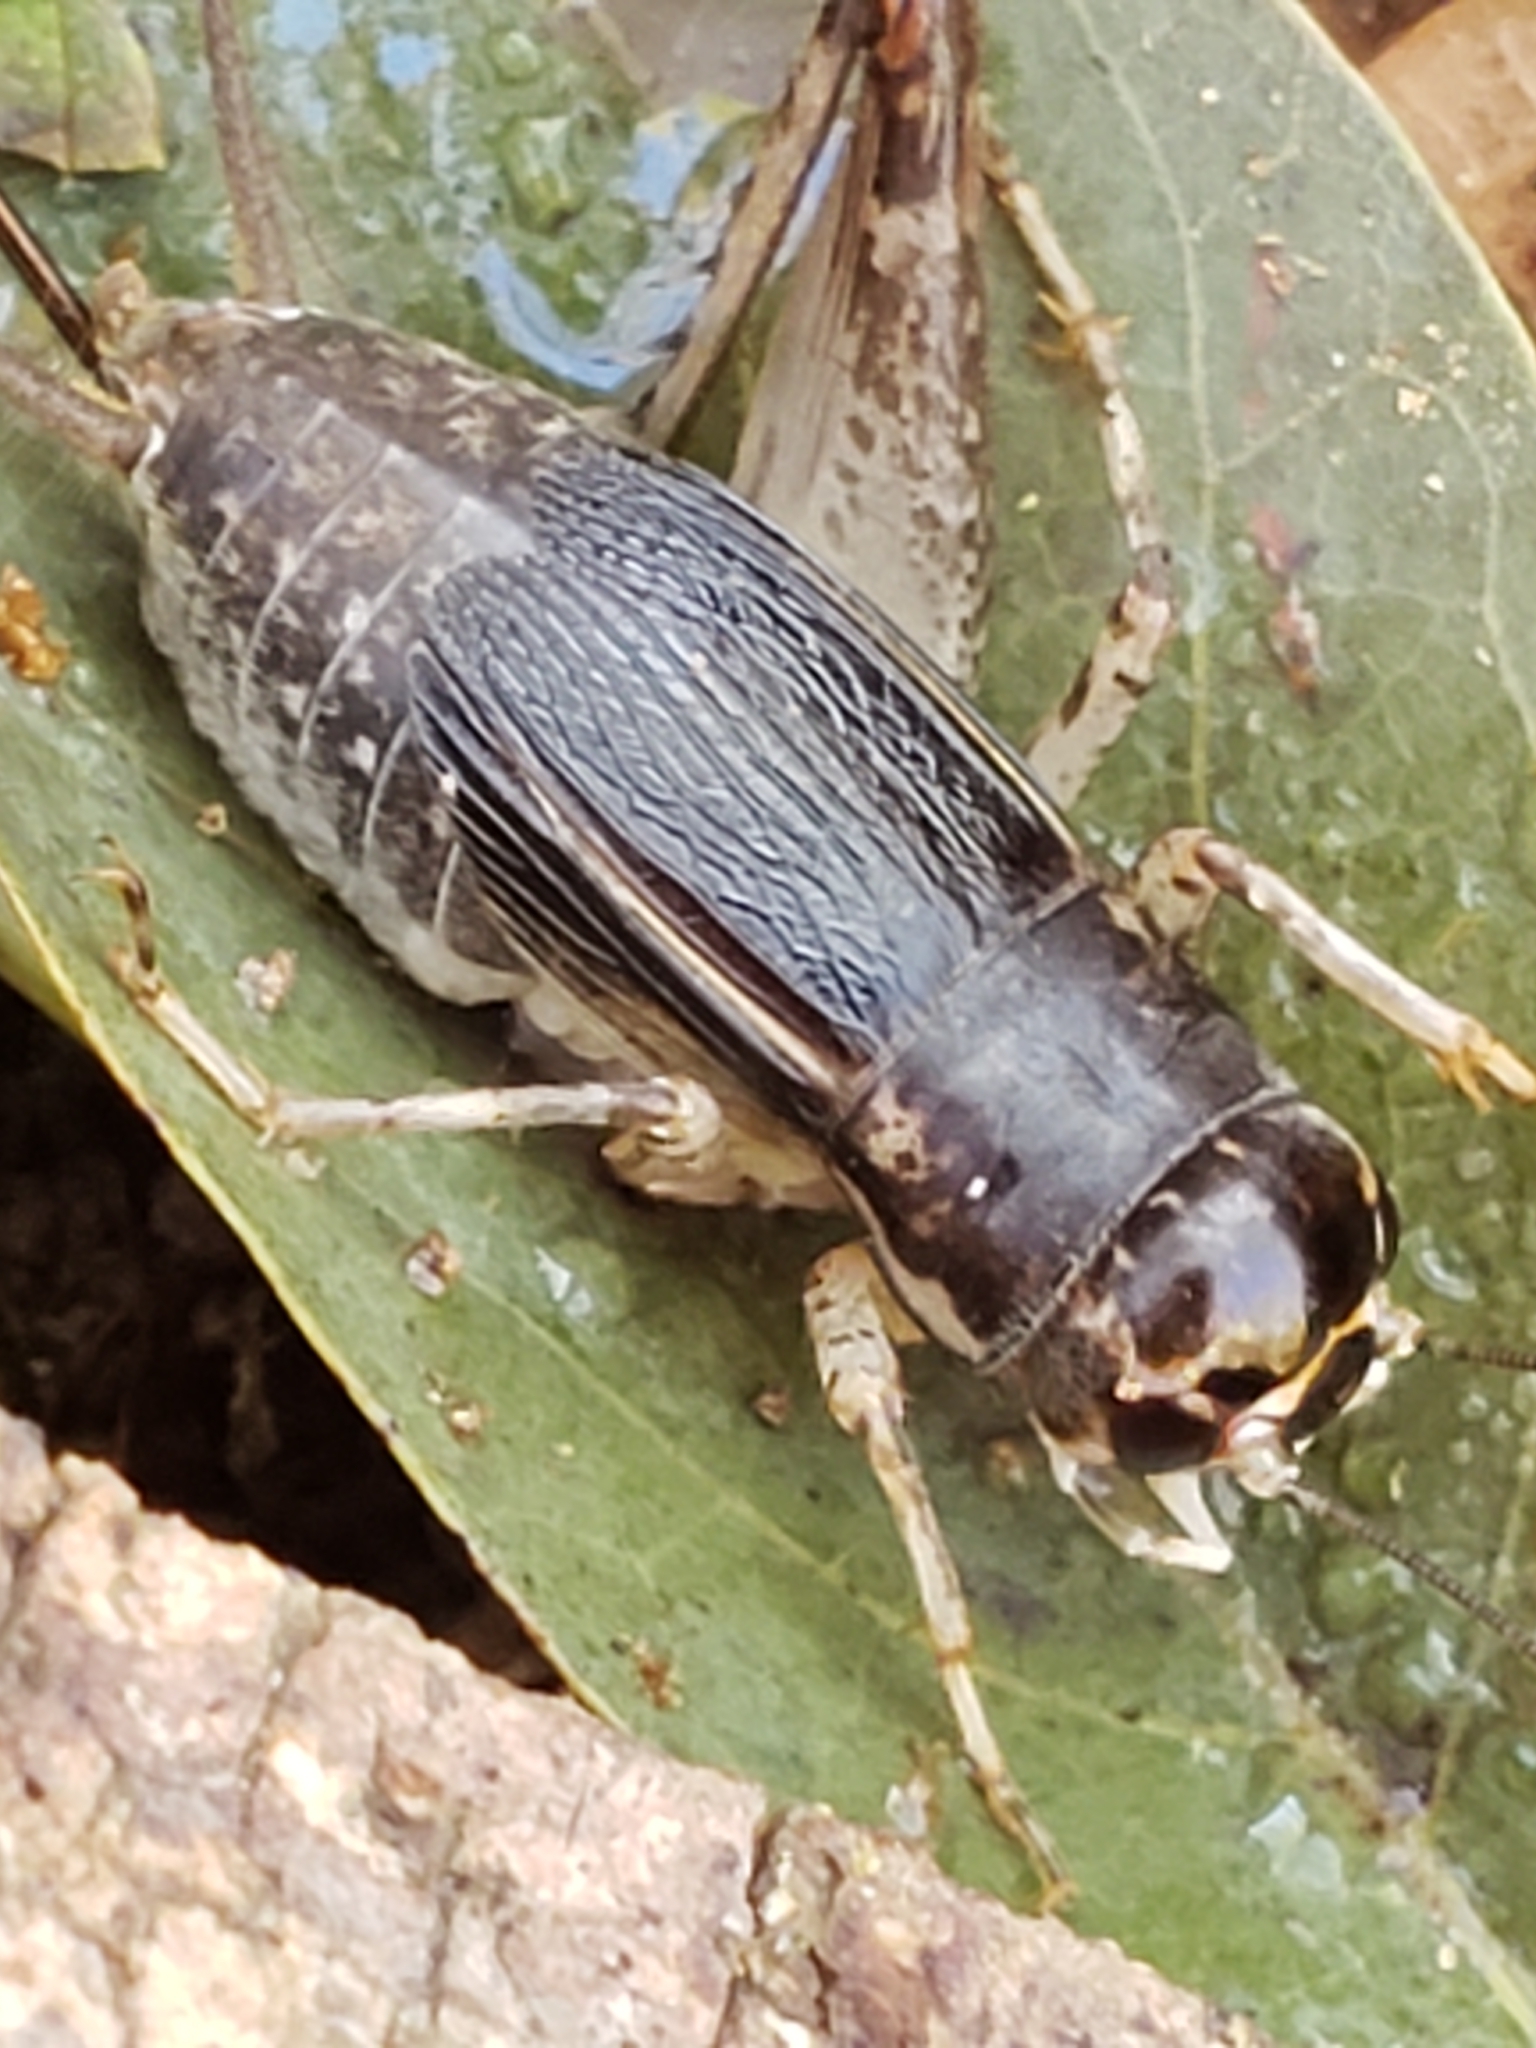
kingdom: Animalia
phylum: Arthropoda
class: Insecta
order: Orthoptera
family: Gryllidae
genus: Velarifictorus
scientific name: Velarifictorus micado
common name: Japanese burrowing cricket
